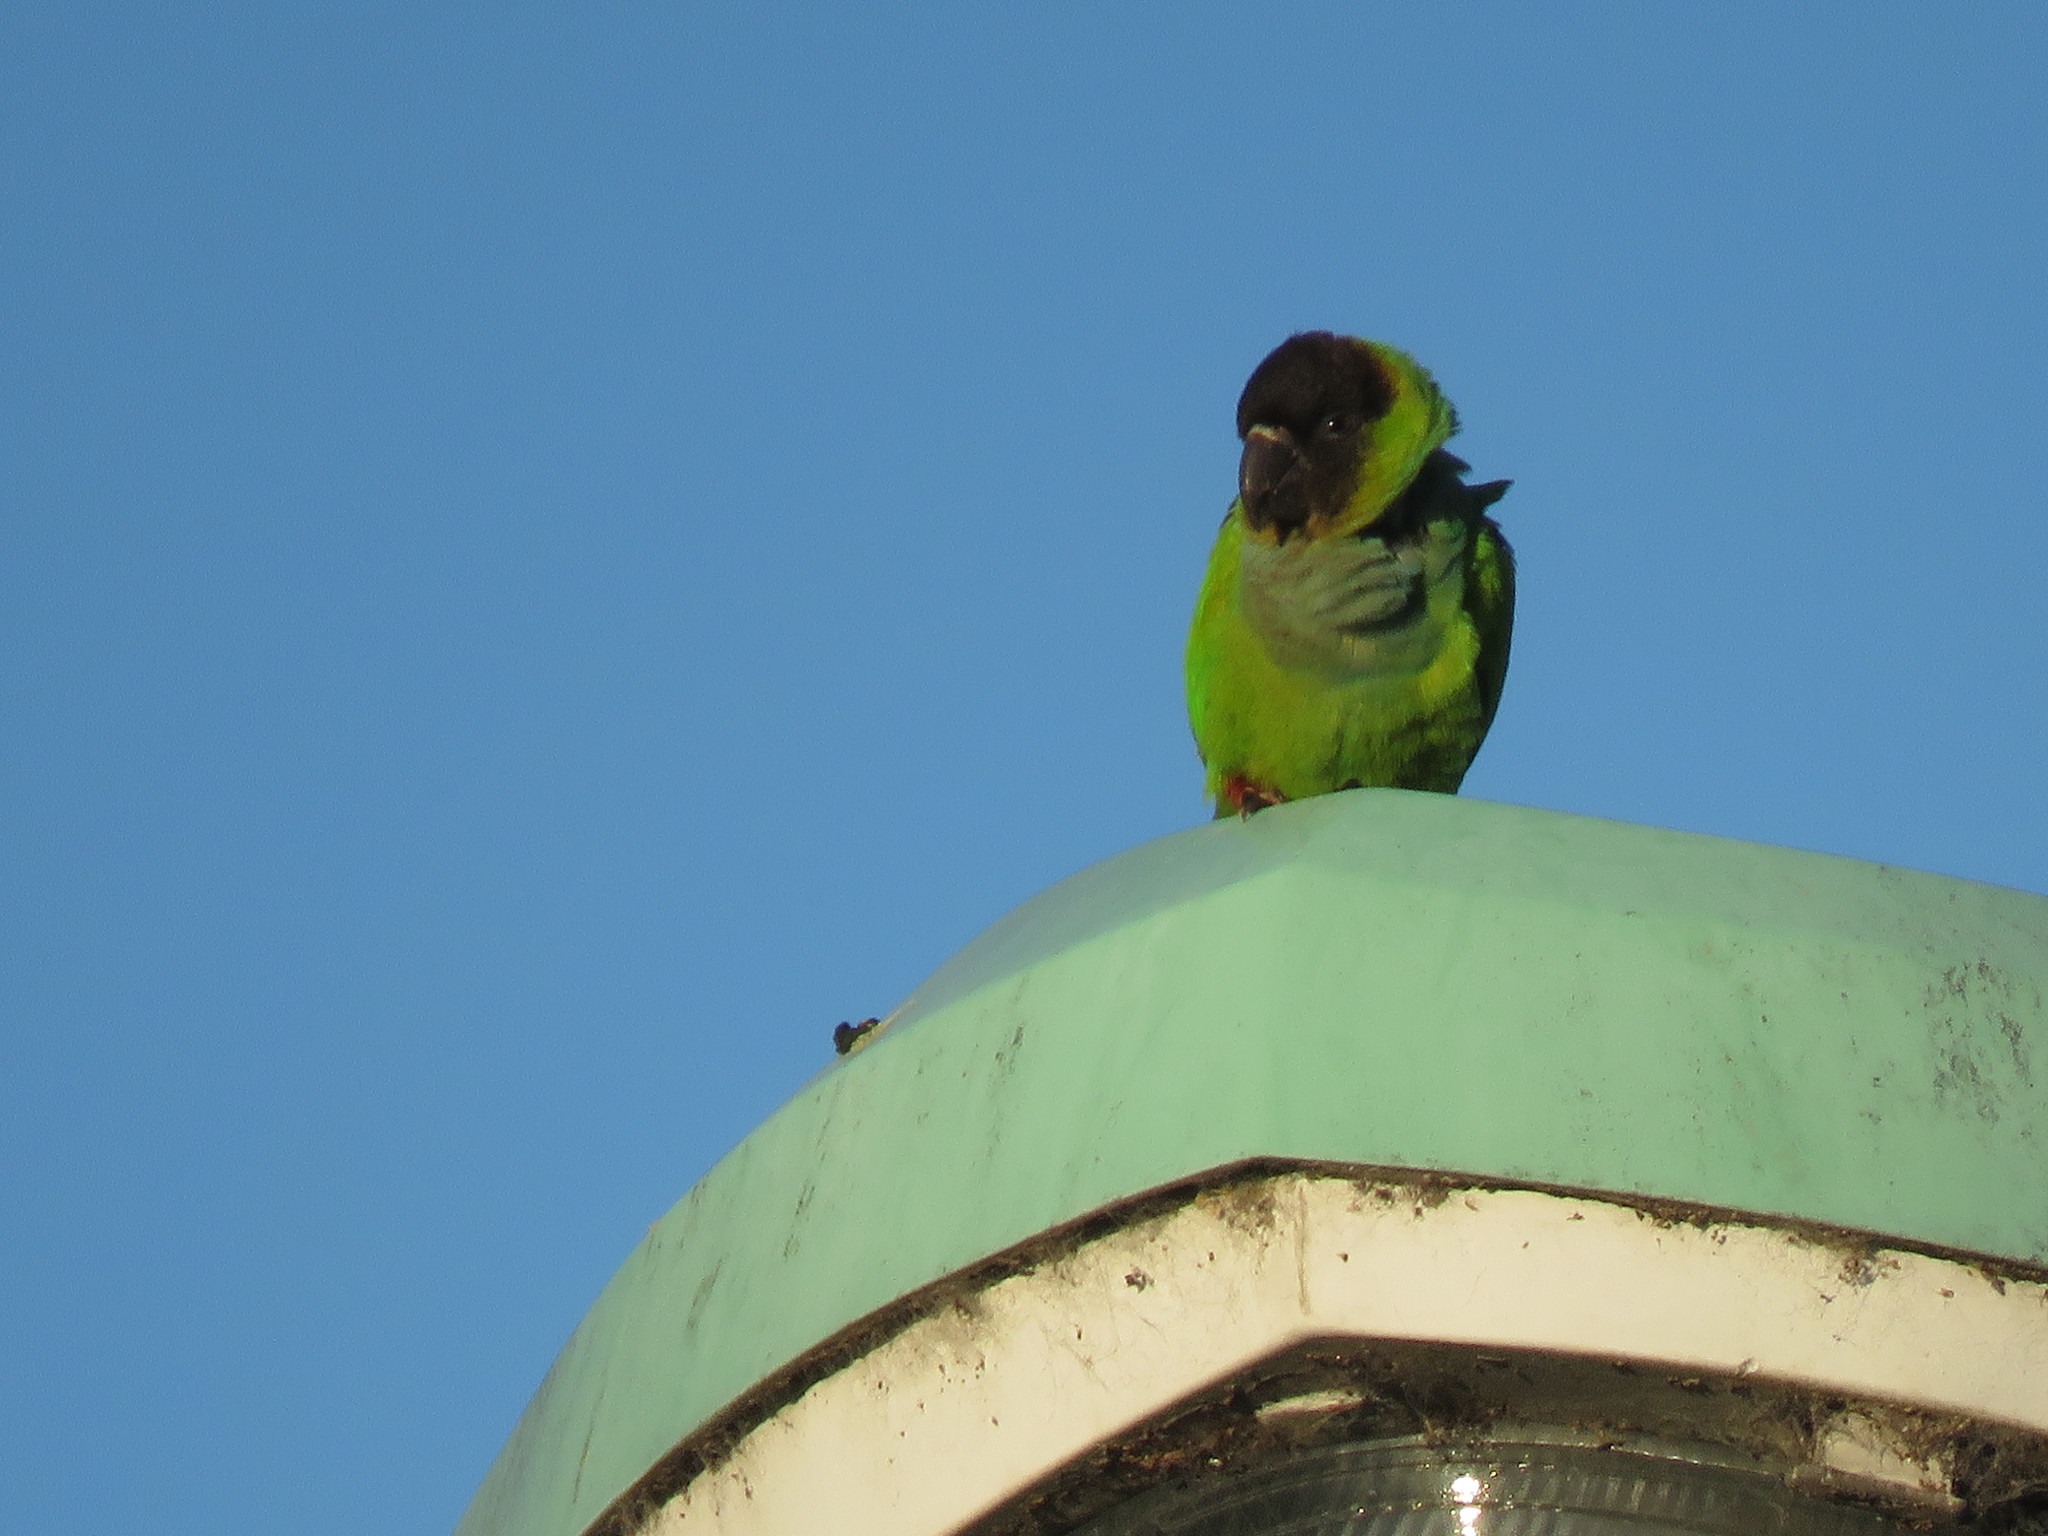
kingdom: Animalia
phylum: Chordata
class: Aves
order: Psittaciformes
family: Psittacidae
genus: Nandayus
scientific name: Nandayus nenday
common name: Nanday parakeet
